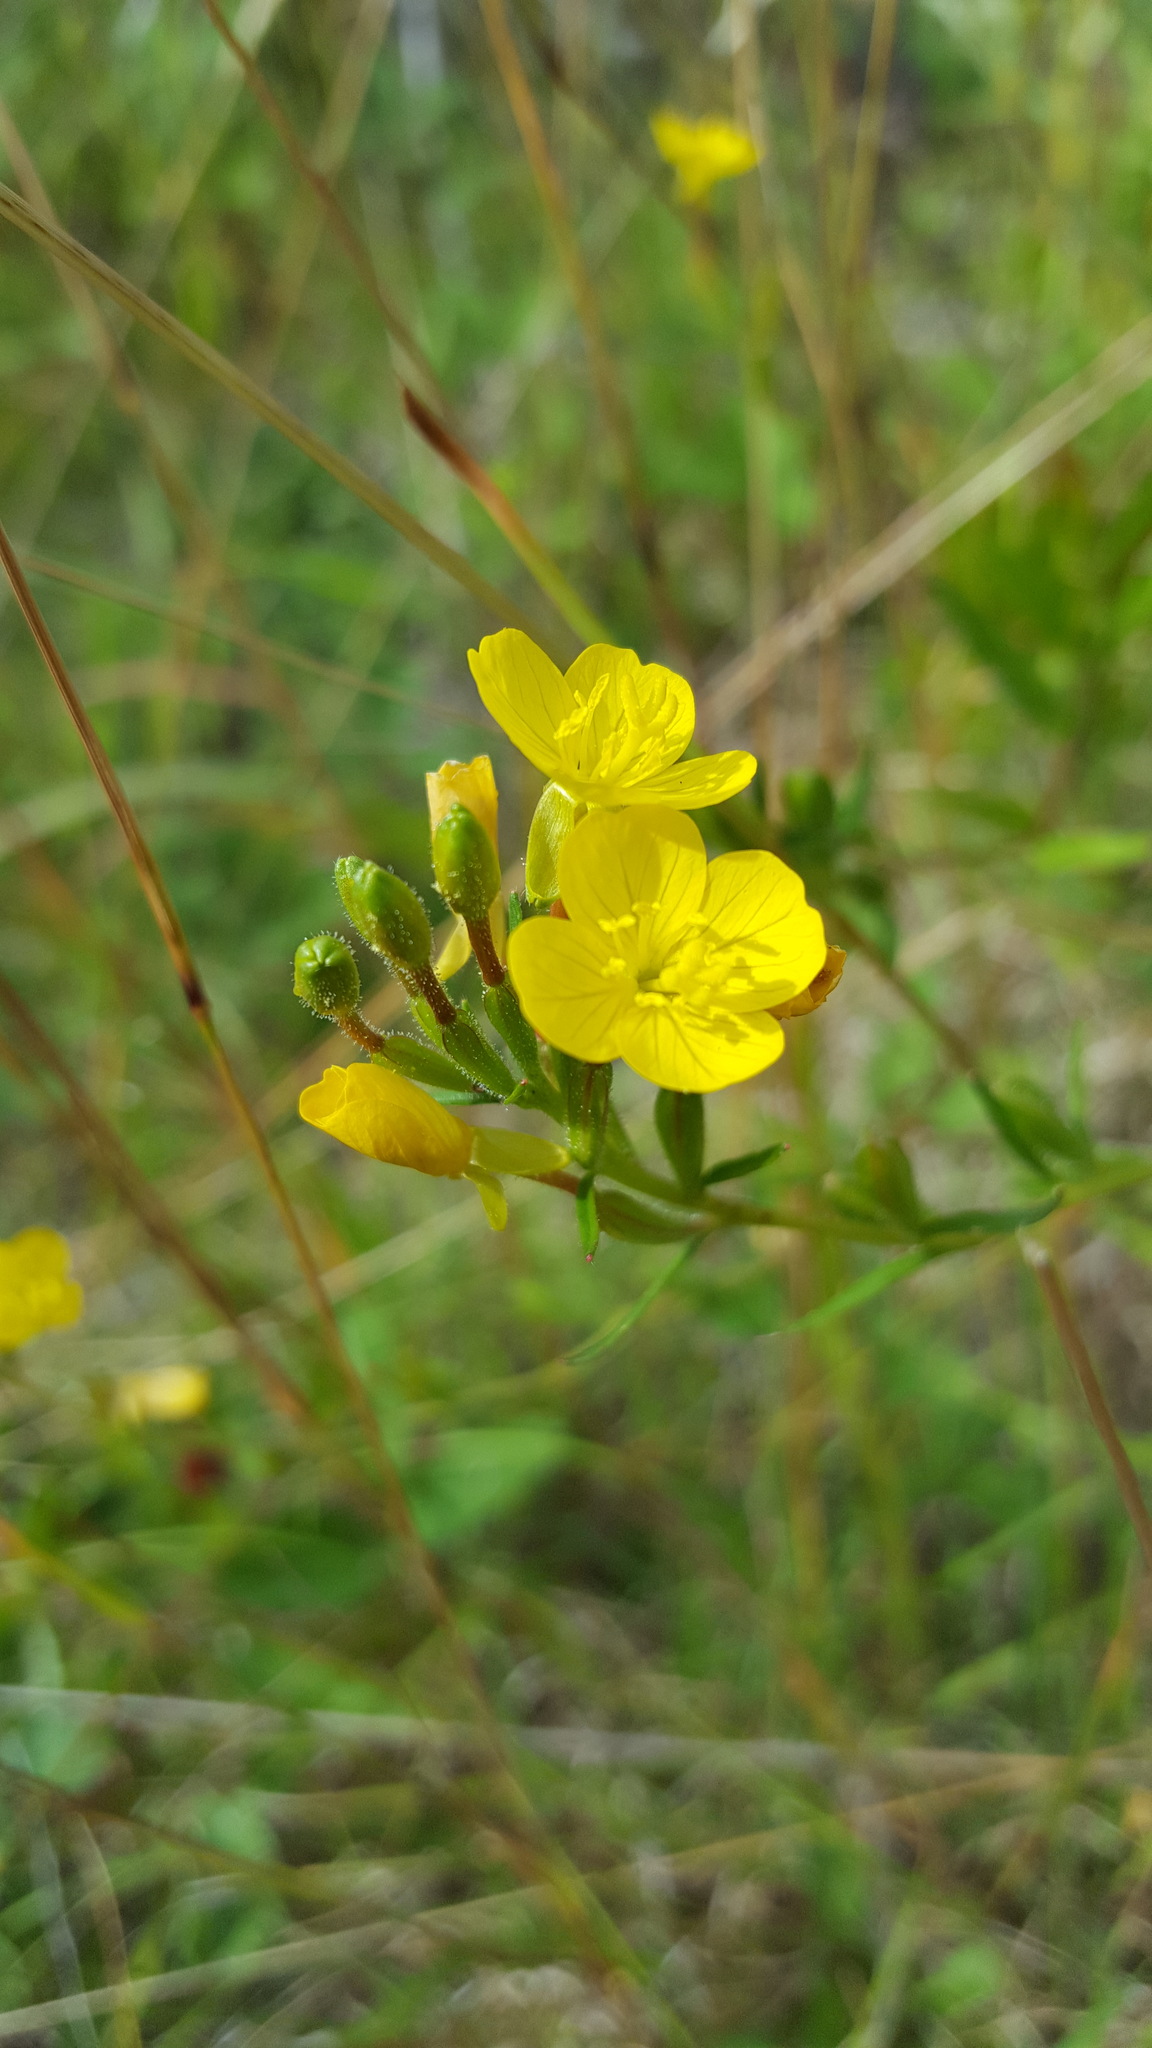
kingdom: Plantae
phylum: Tracheophyta
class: Magnoliopsida
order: Myrtales
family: Onagraceae
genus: Oenothera
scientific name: Oenothera perennis
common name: Small sundrops
